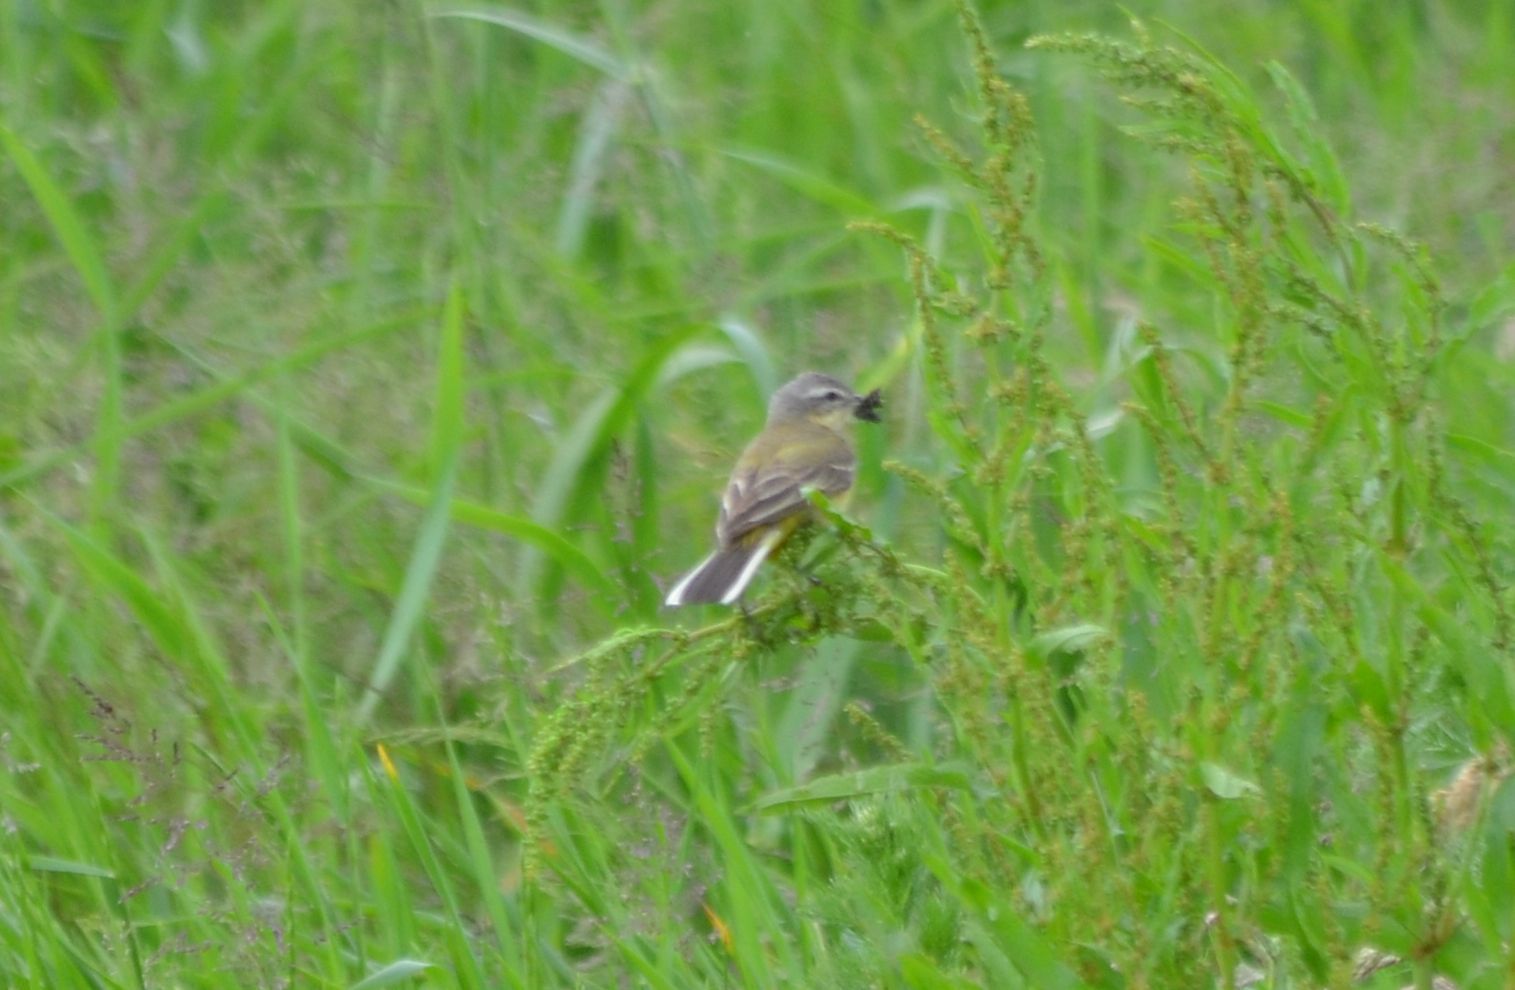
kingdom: Animalia
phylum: Chordata
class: Aves
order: Passeriformes
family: Motacillidae
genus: Motacilla
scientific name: Motacilla flava
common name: Western yellow wagtail
